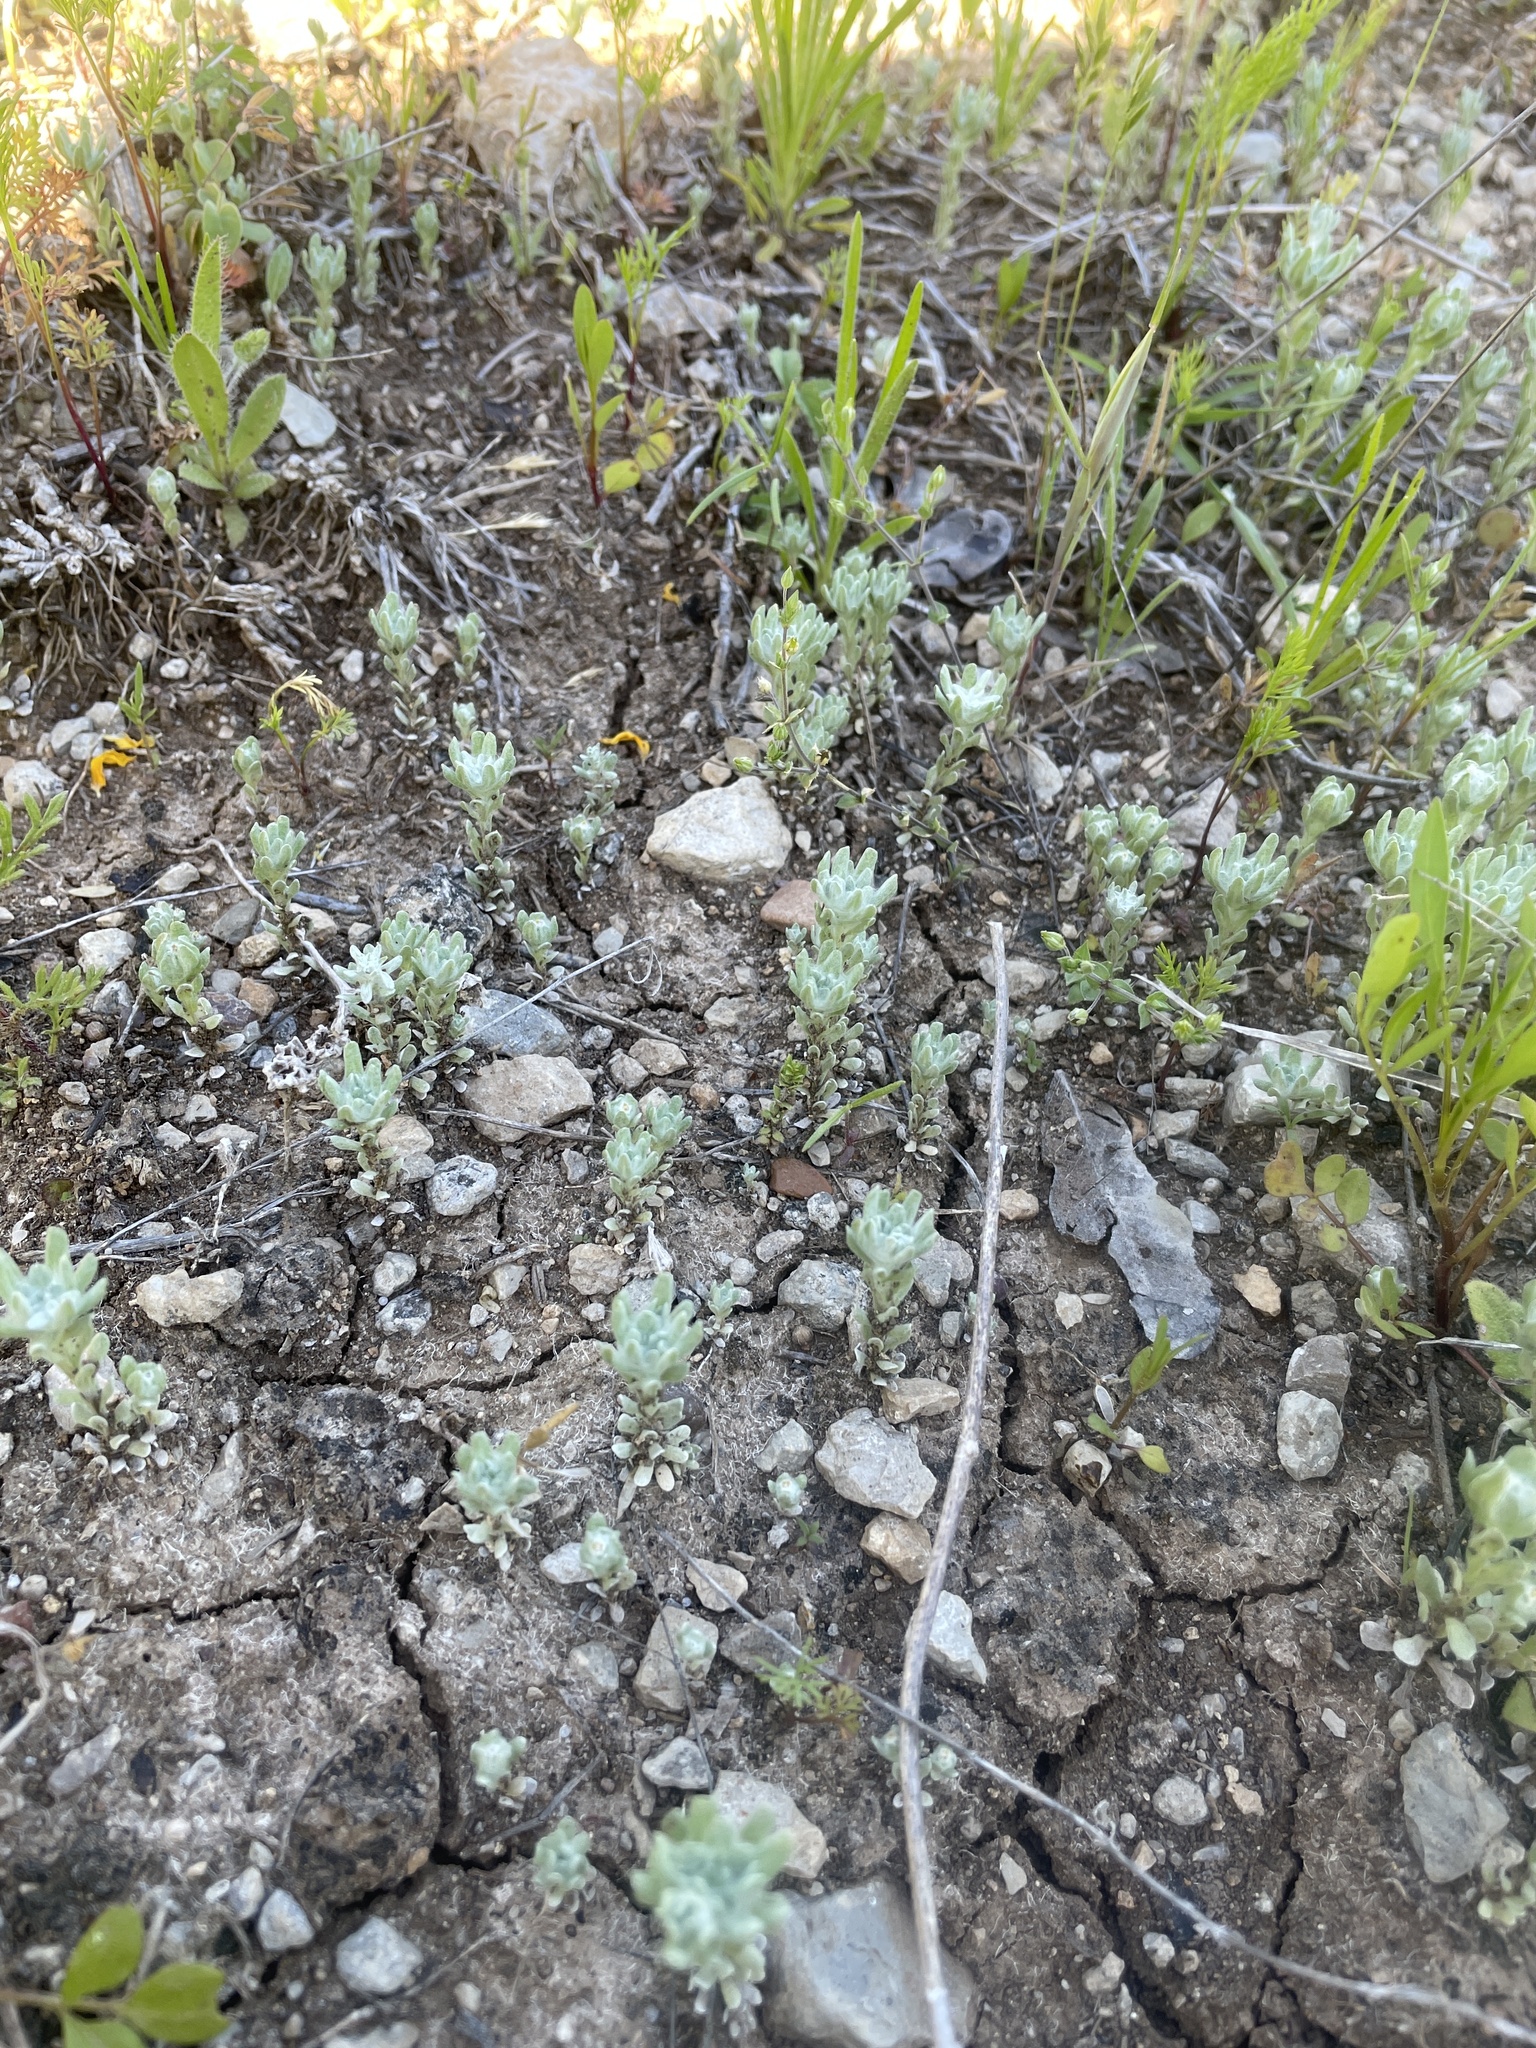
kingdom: Plantae
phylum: Tracheophyta
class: Magnoliopsida
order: Asterales
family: Asteraceae
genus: Diaperia
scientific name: Diaperia prolifera
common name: Big-head rabbit-tobacco
